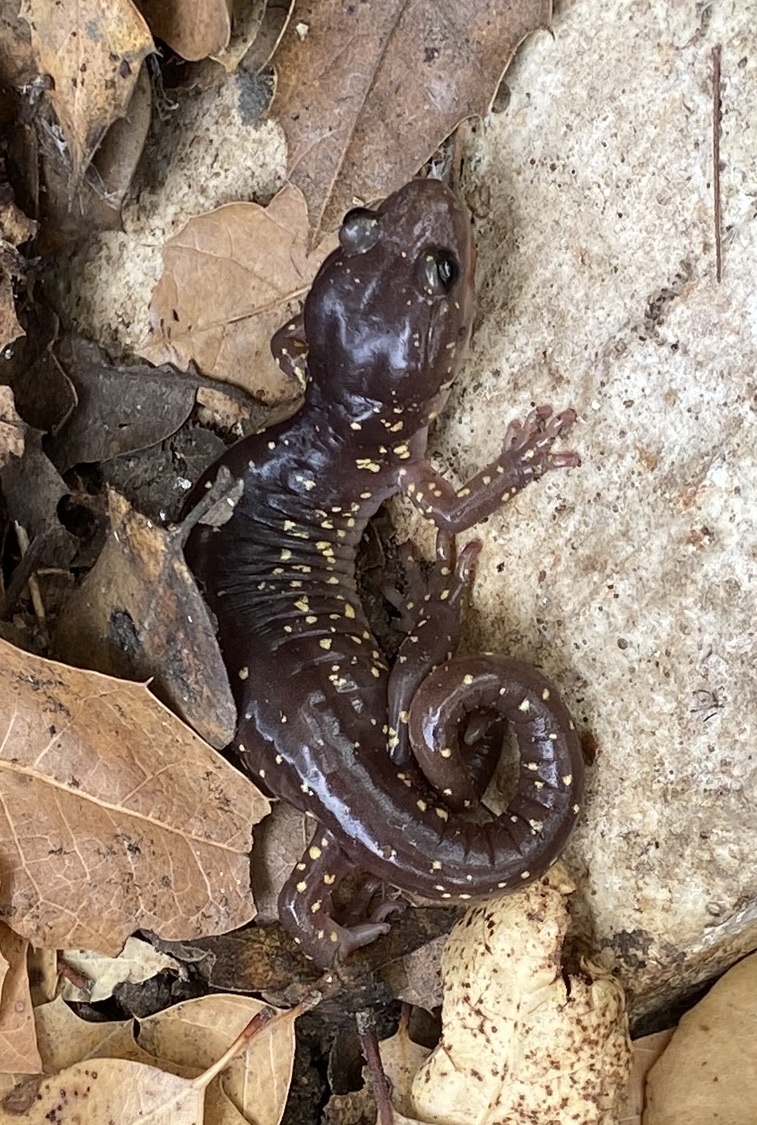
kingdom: Animalia
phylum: Chordata
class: Amphibia
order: Caudata
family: Plethodontidae
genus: Aneides
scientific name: Aneides lugubris
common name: Arboreal salamander
